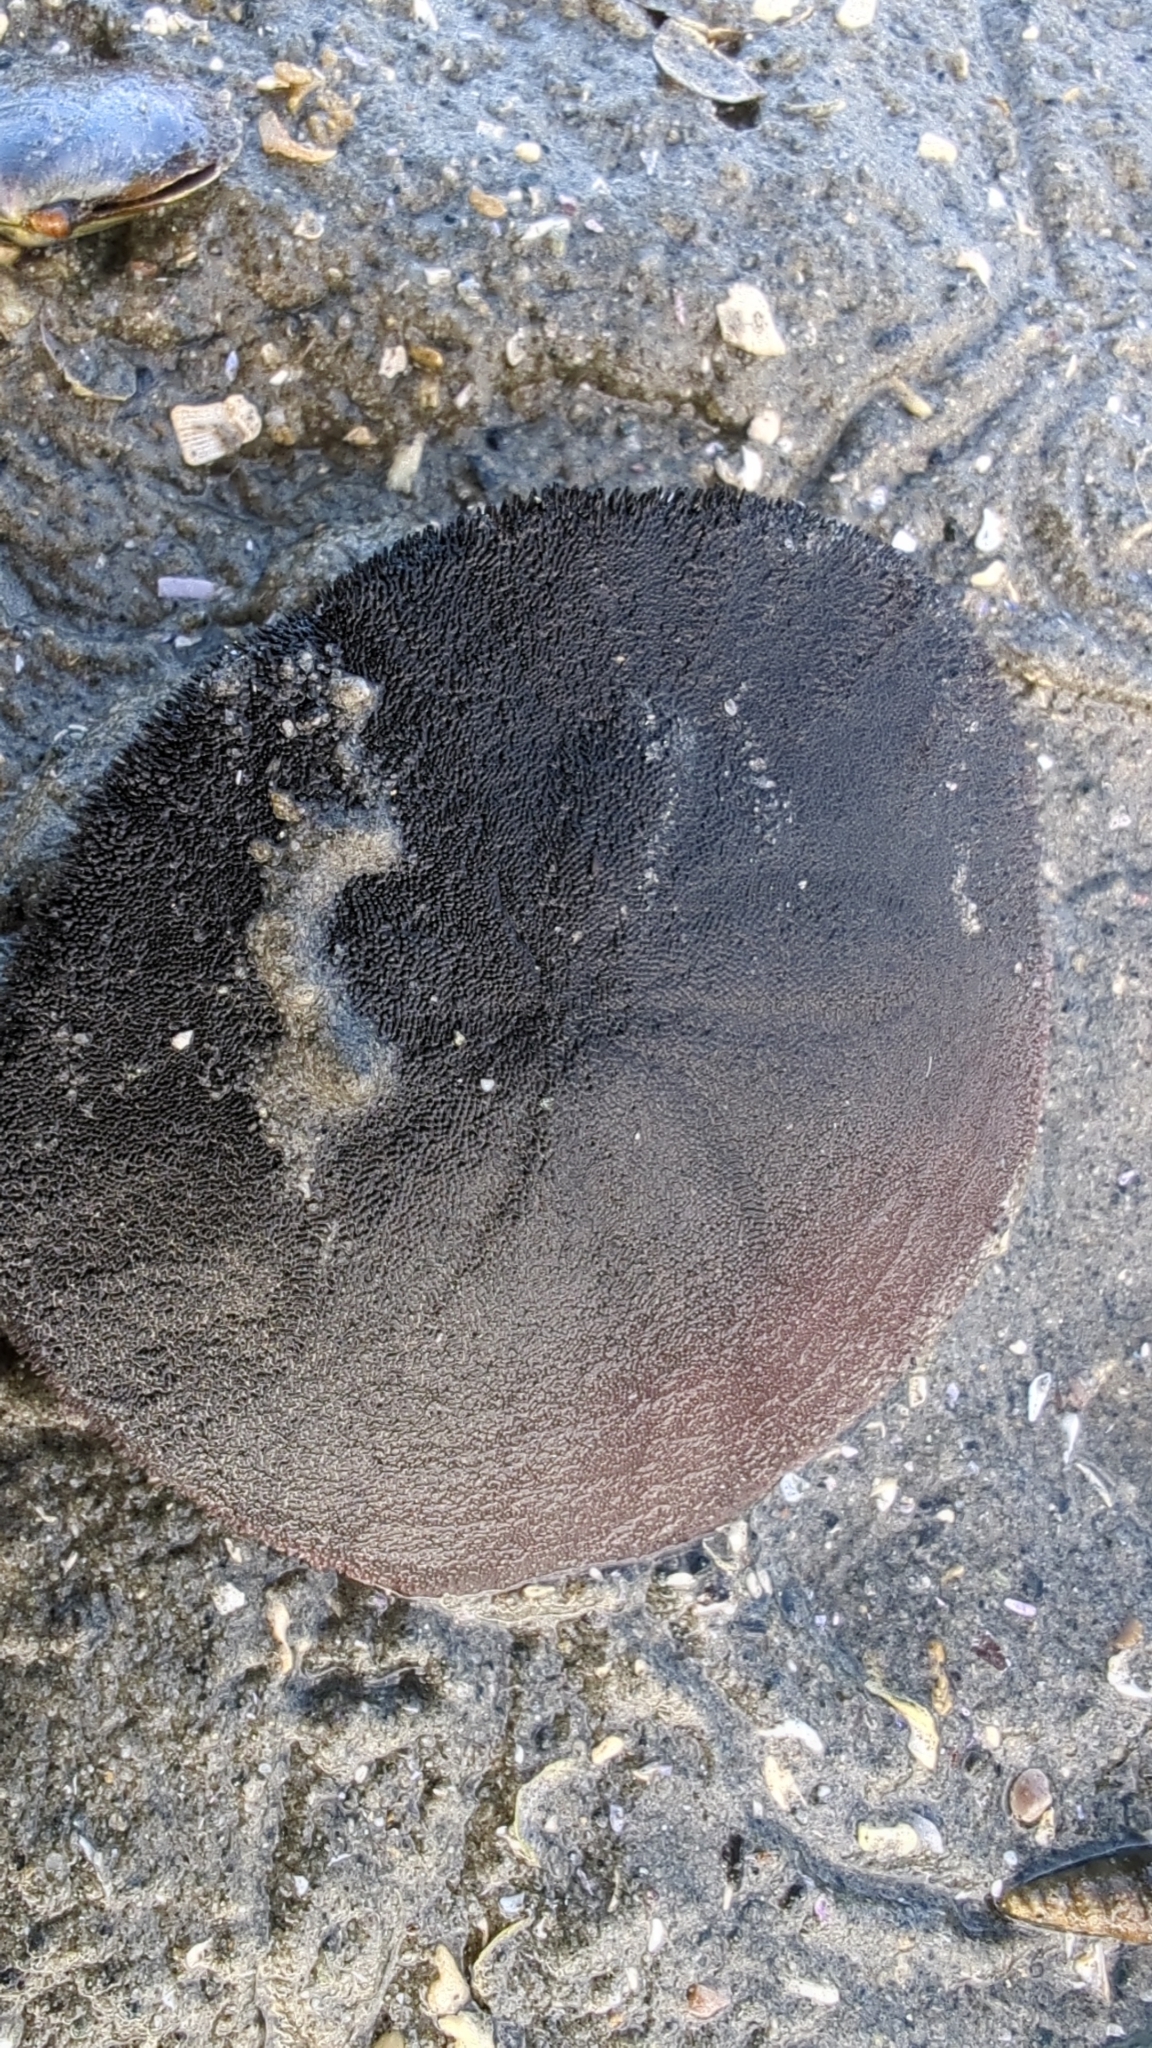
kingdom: Animalia
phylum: Echinodermata
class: Echinoidea
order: Echinolampadacea
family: Dendrasteridae
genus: Dendraster
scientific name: Dendraster excentricus
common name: Eccentric sand dollar sea urchin
